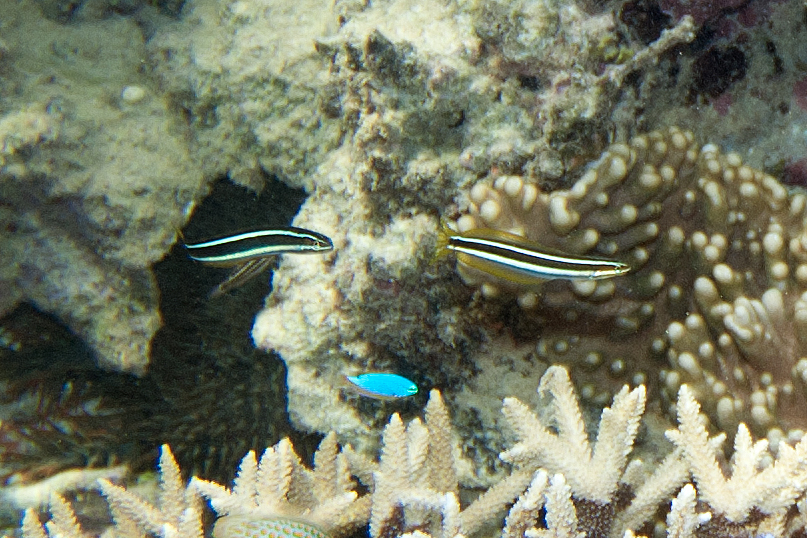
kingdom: Animalia
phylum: Chordata
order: Perciformes
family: Blenniidae
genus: Plagiotremus
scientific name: Plagiotremus rhinorhynchos
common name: Bluestriped fangblenny
